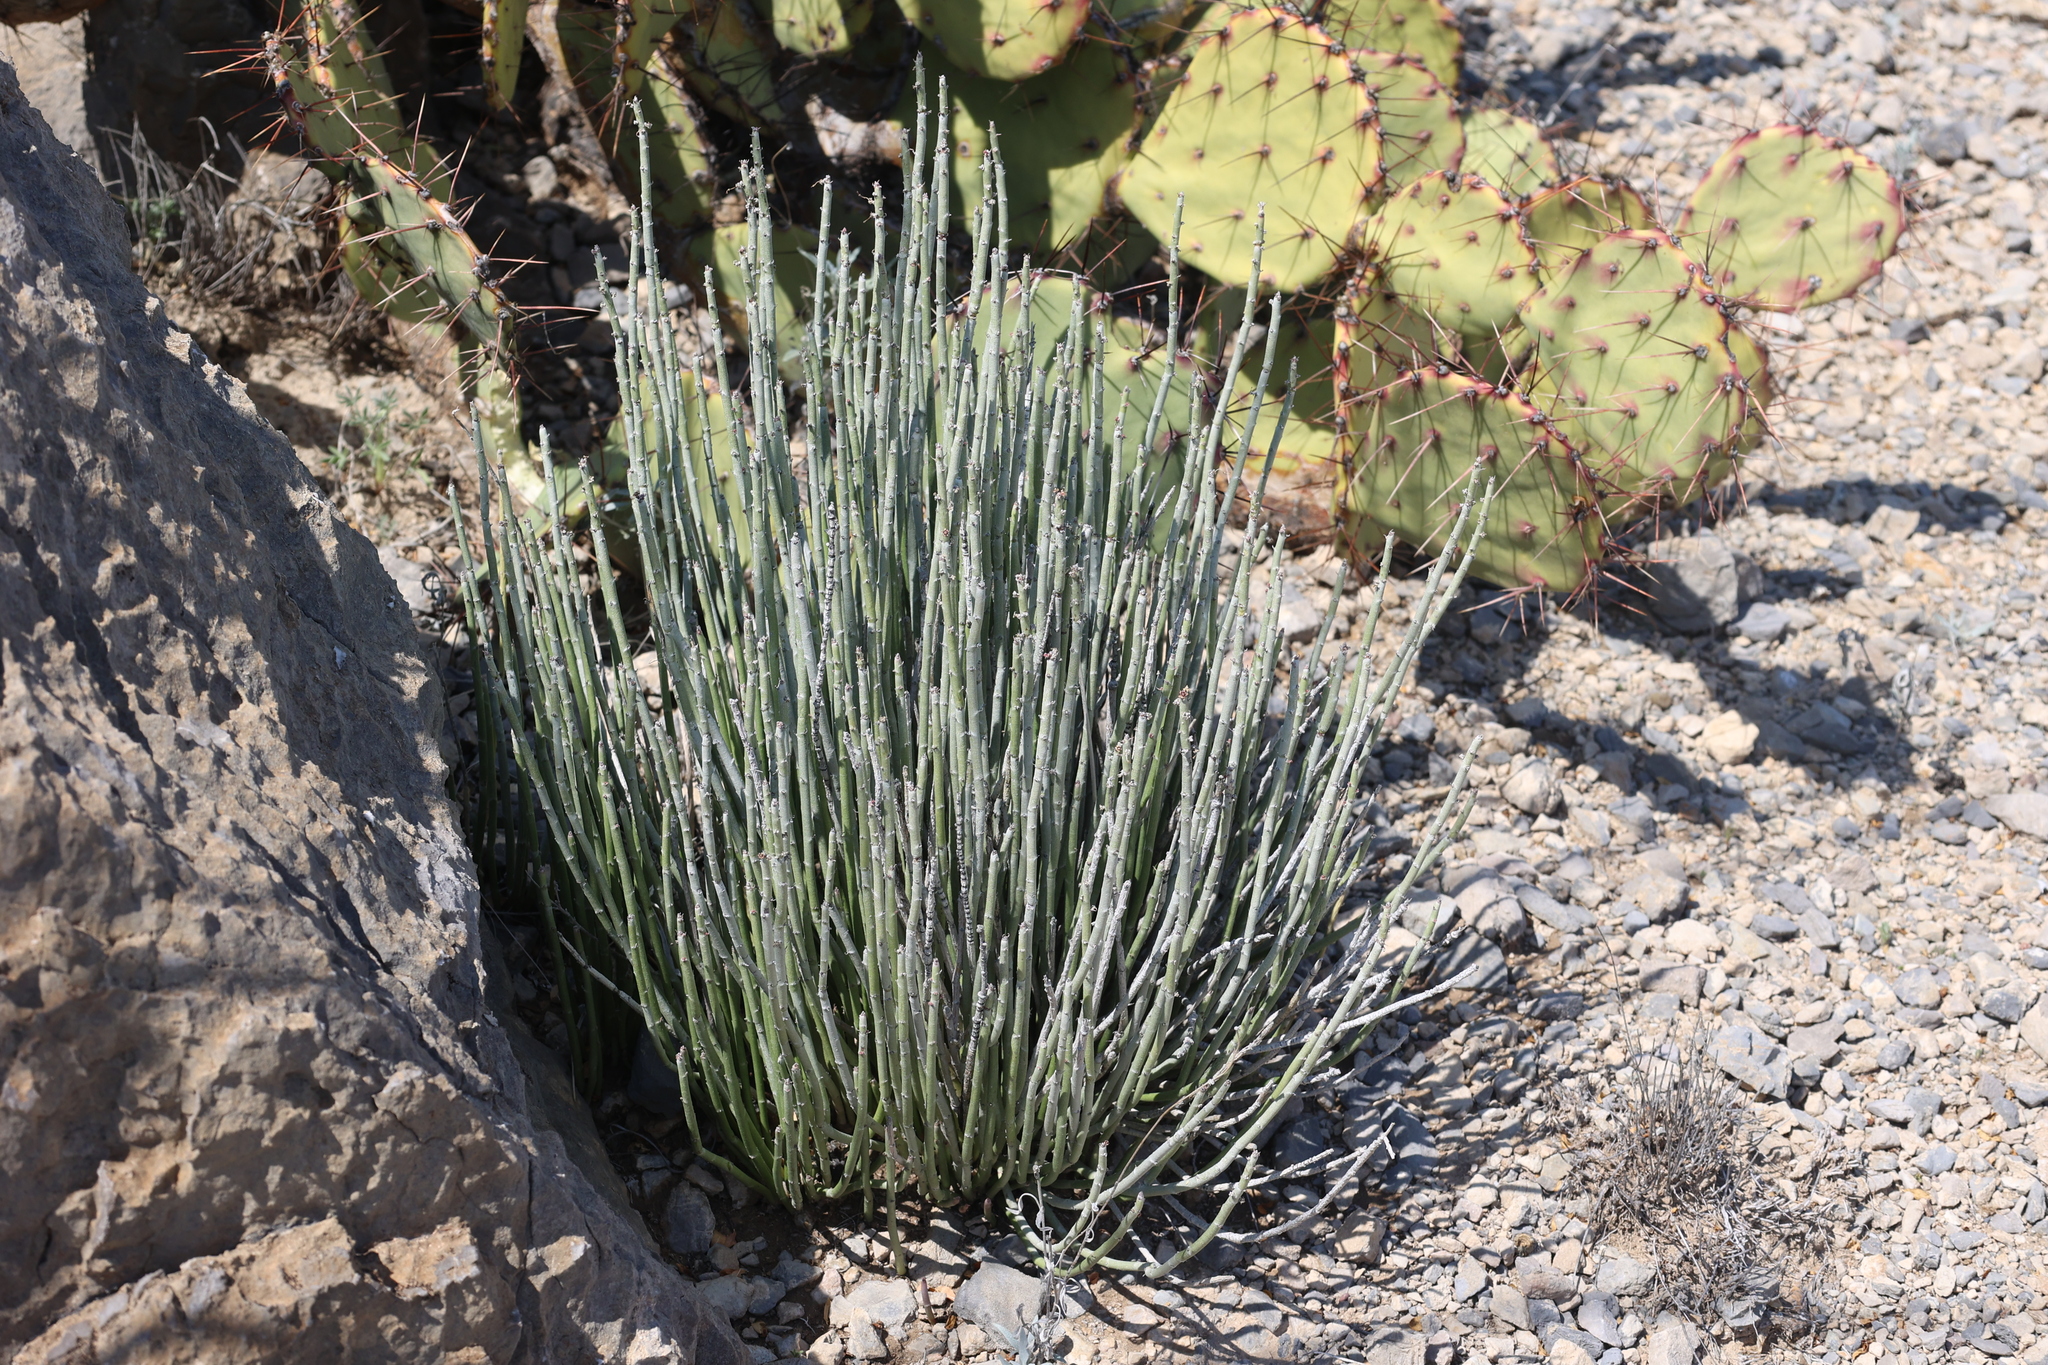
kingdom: Plantae
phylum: Tracheophyta
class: Magnoliopsida
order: Malpighiales
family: Euphorbiaceae
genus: Euphorbia
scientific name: Euphorbia antisyphilitica
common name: Candelilla
